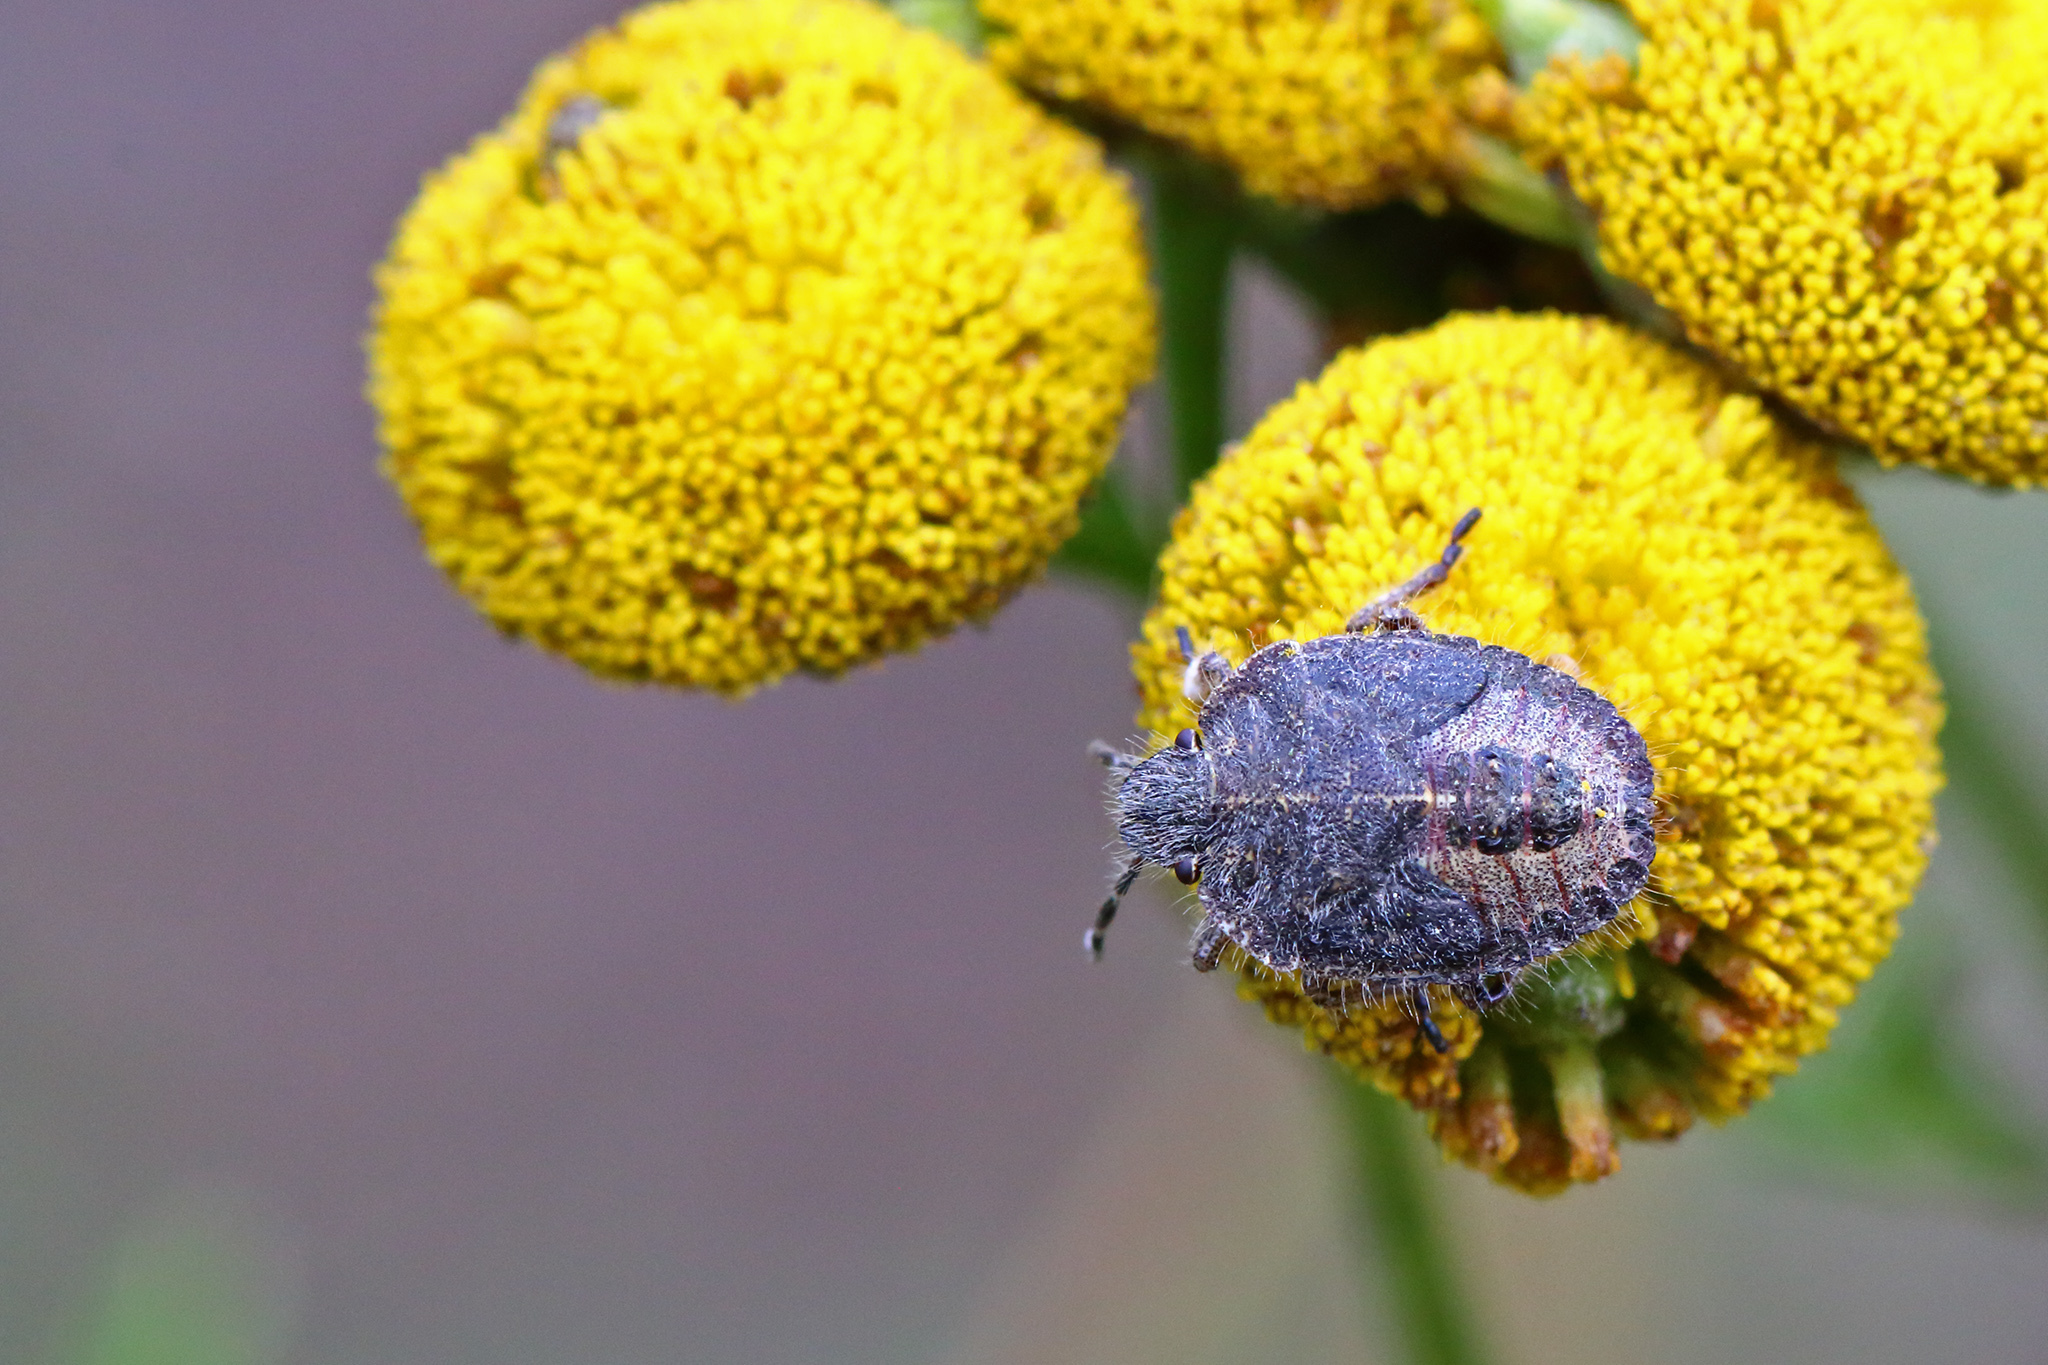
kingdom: Animalia
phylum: Arthropoda
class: Insecta
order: Hemiptera
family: Pentatomidae
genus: Dolycoris
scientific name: Dolycoris baccarum
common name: Sloe bug
